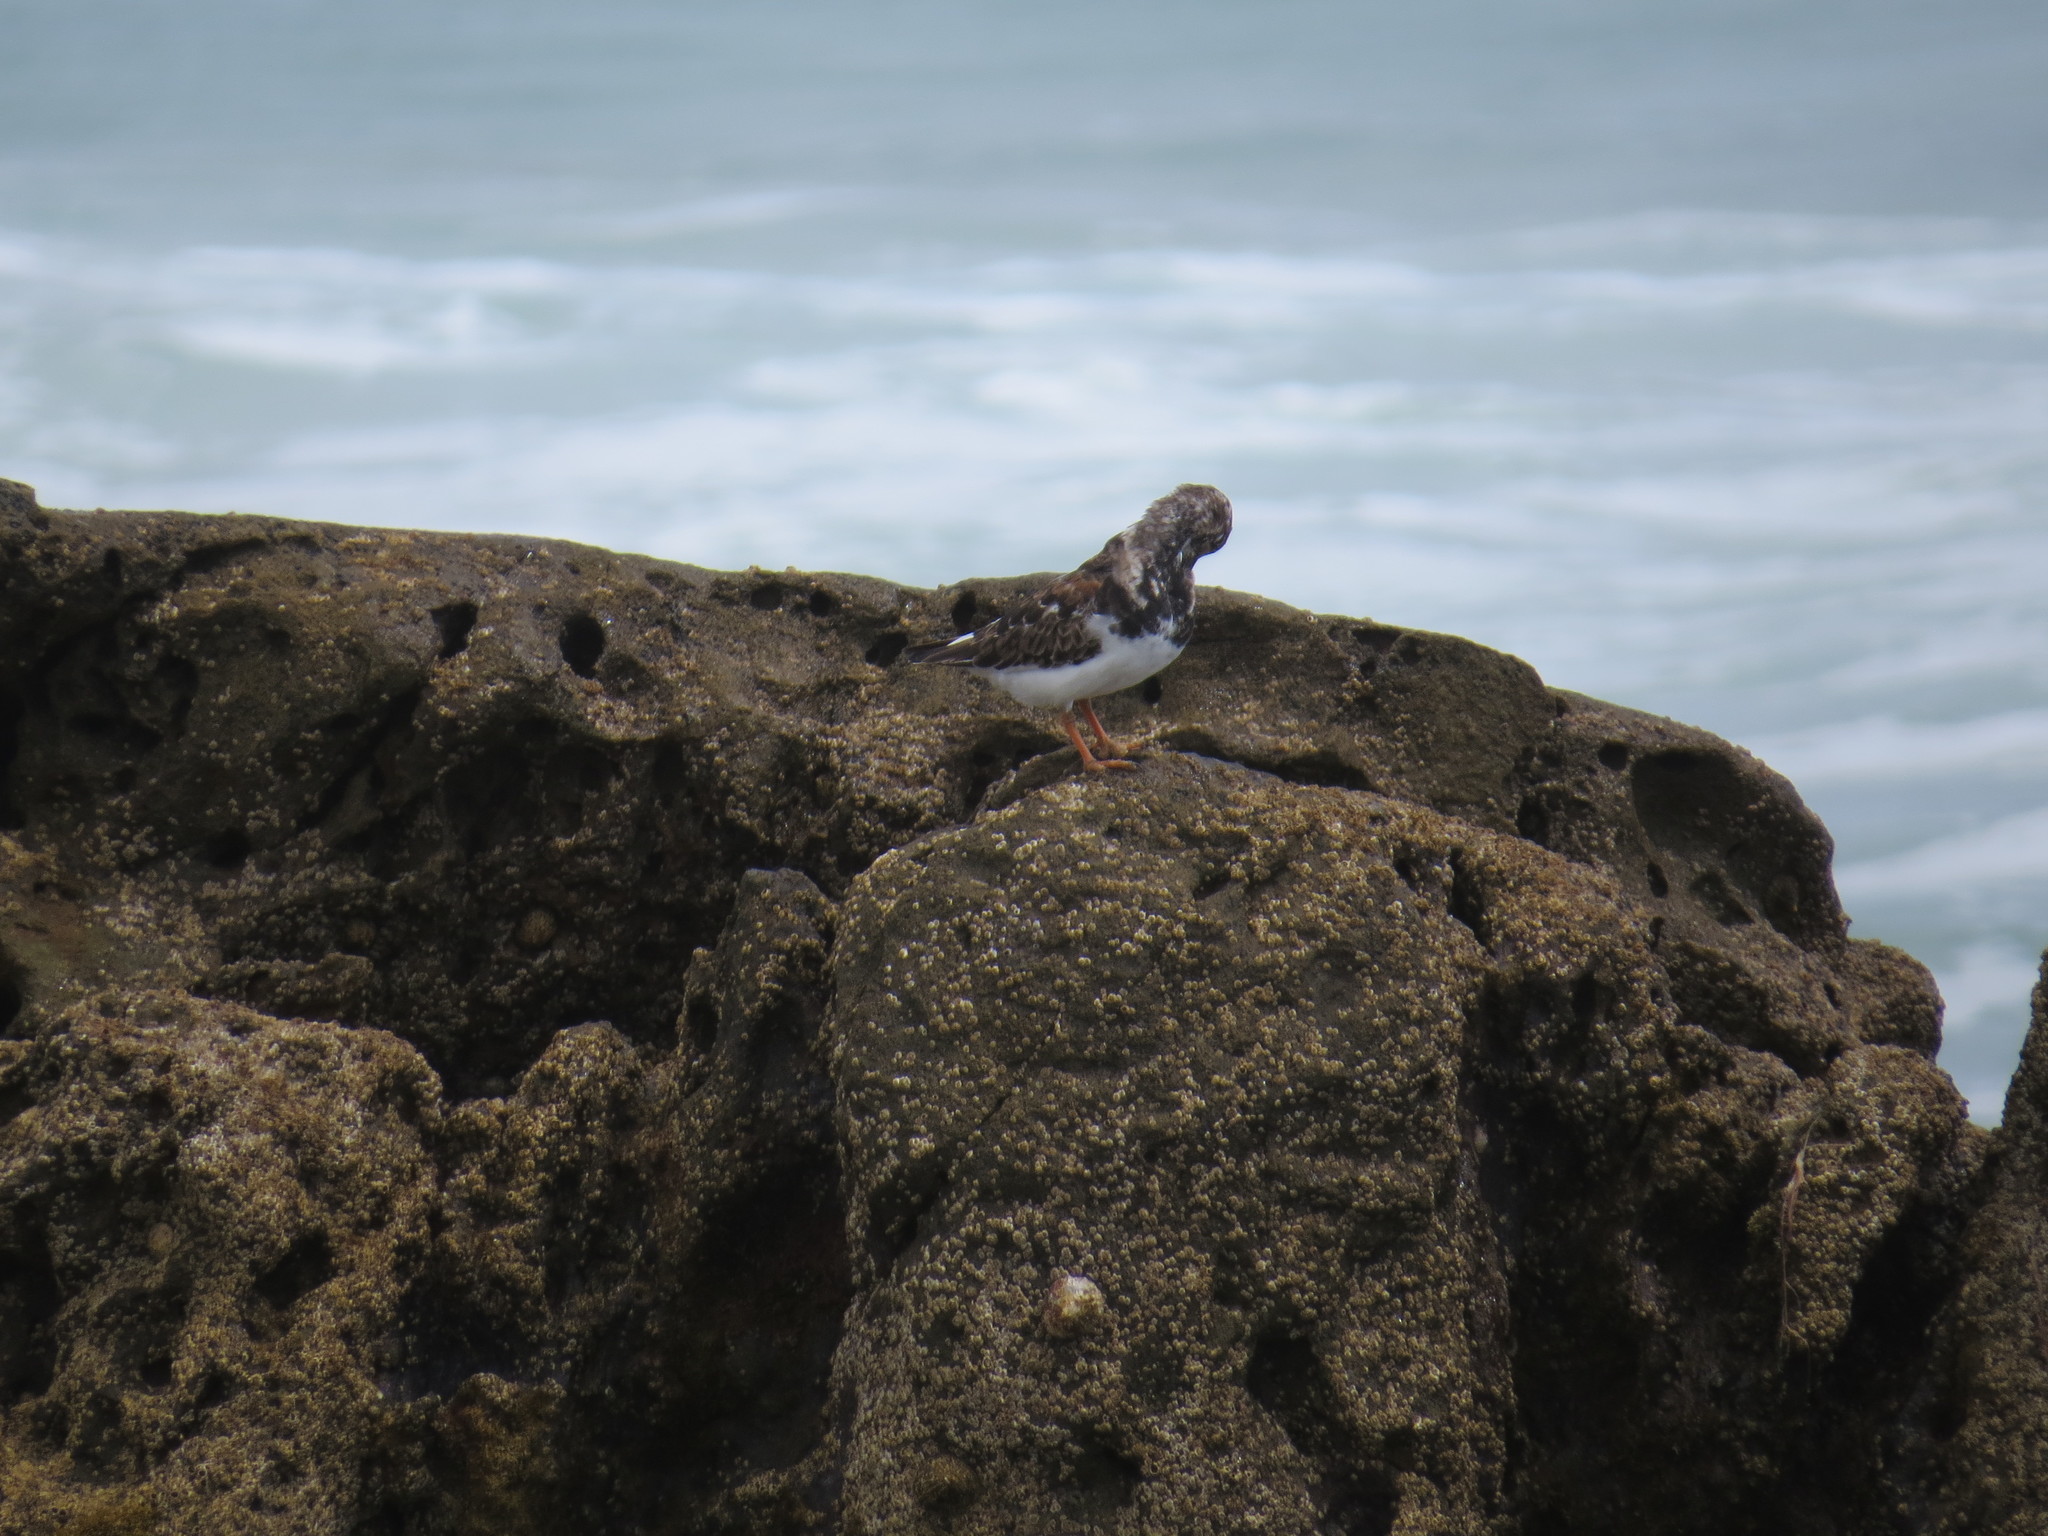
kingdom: Animalia
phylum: Chordata
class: Aves
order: Charadriiformes
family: Scolopacidae
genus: Arenaria
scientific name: Arenaria interpres
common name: Ruddy turnstone
